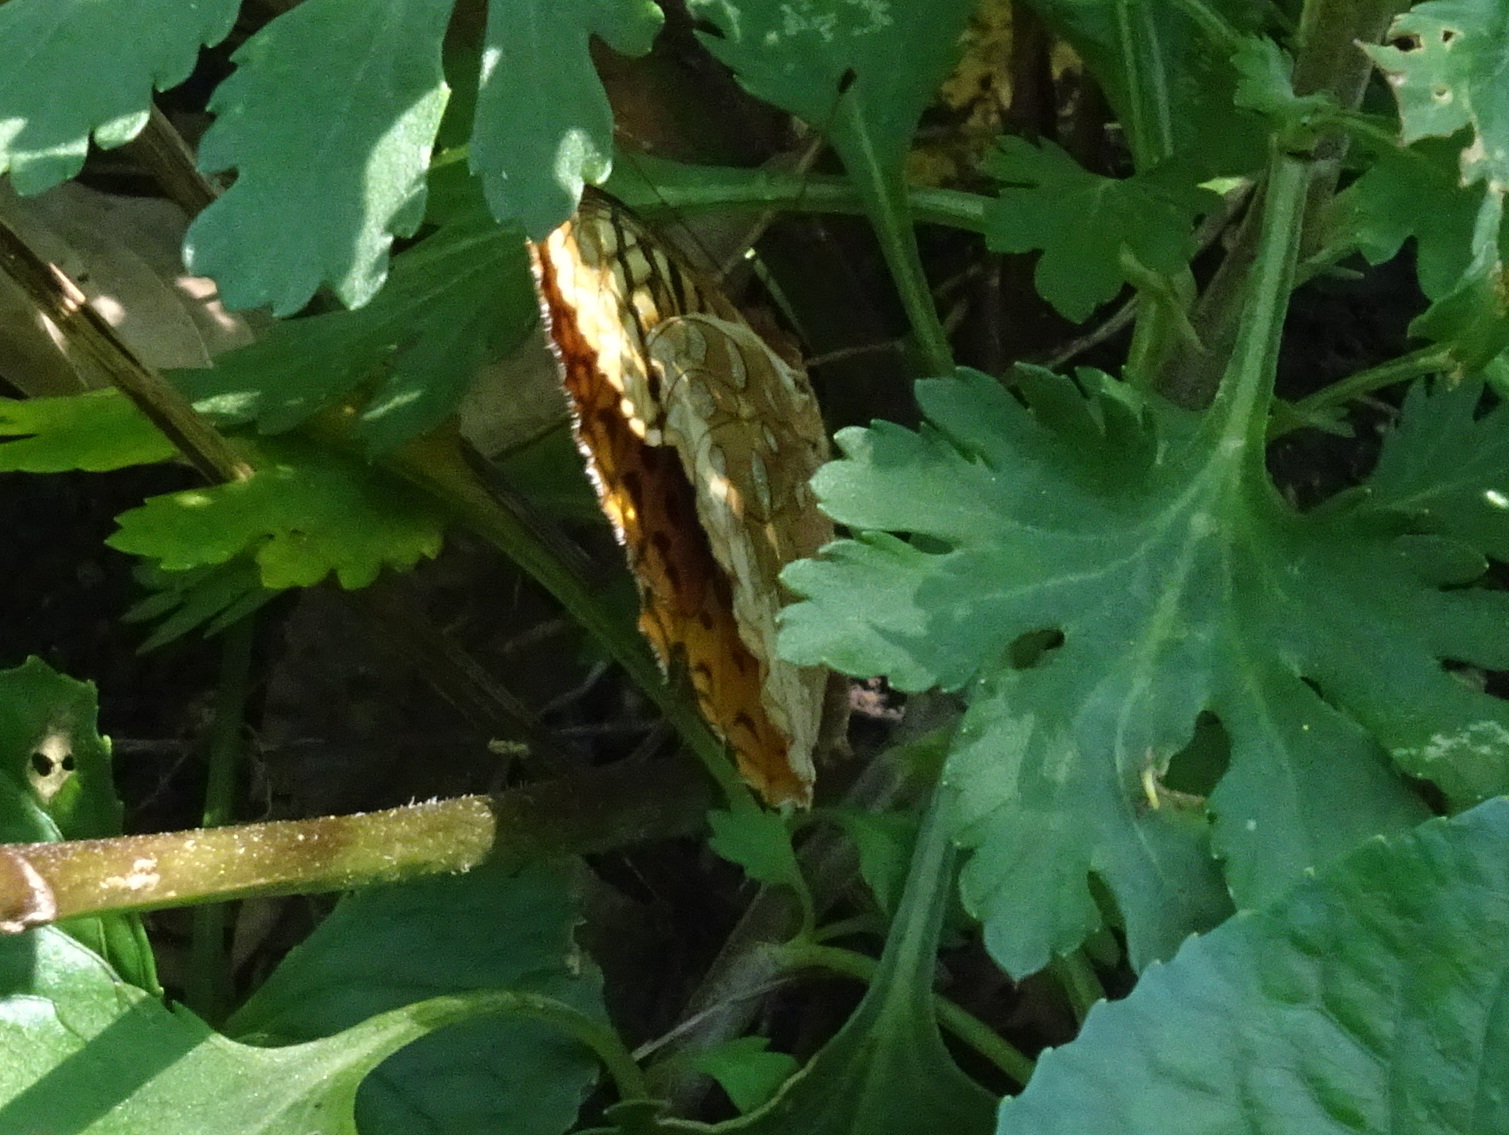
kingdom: Animalia
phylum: Arthropoda
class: Insecta
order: Lepidoptera
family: Nymphalidae
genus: Speyeria
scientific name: Speyeria cybele
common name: Great spangled fritillary
